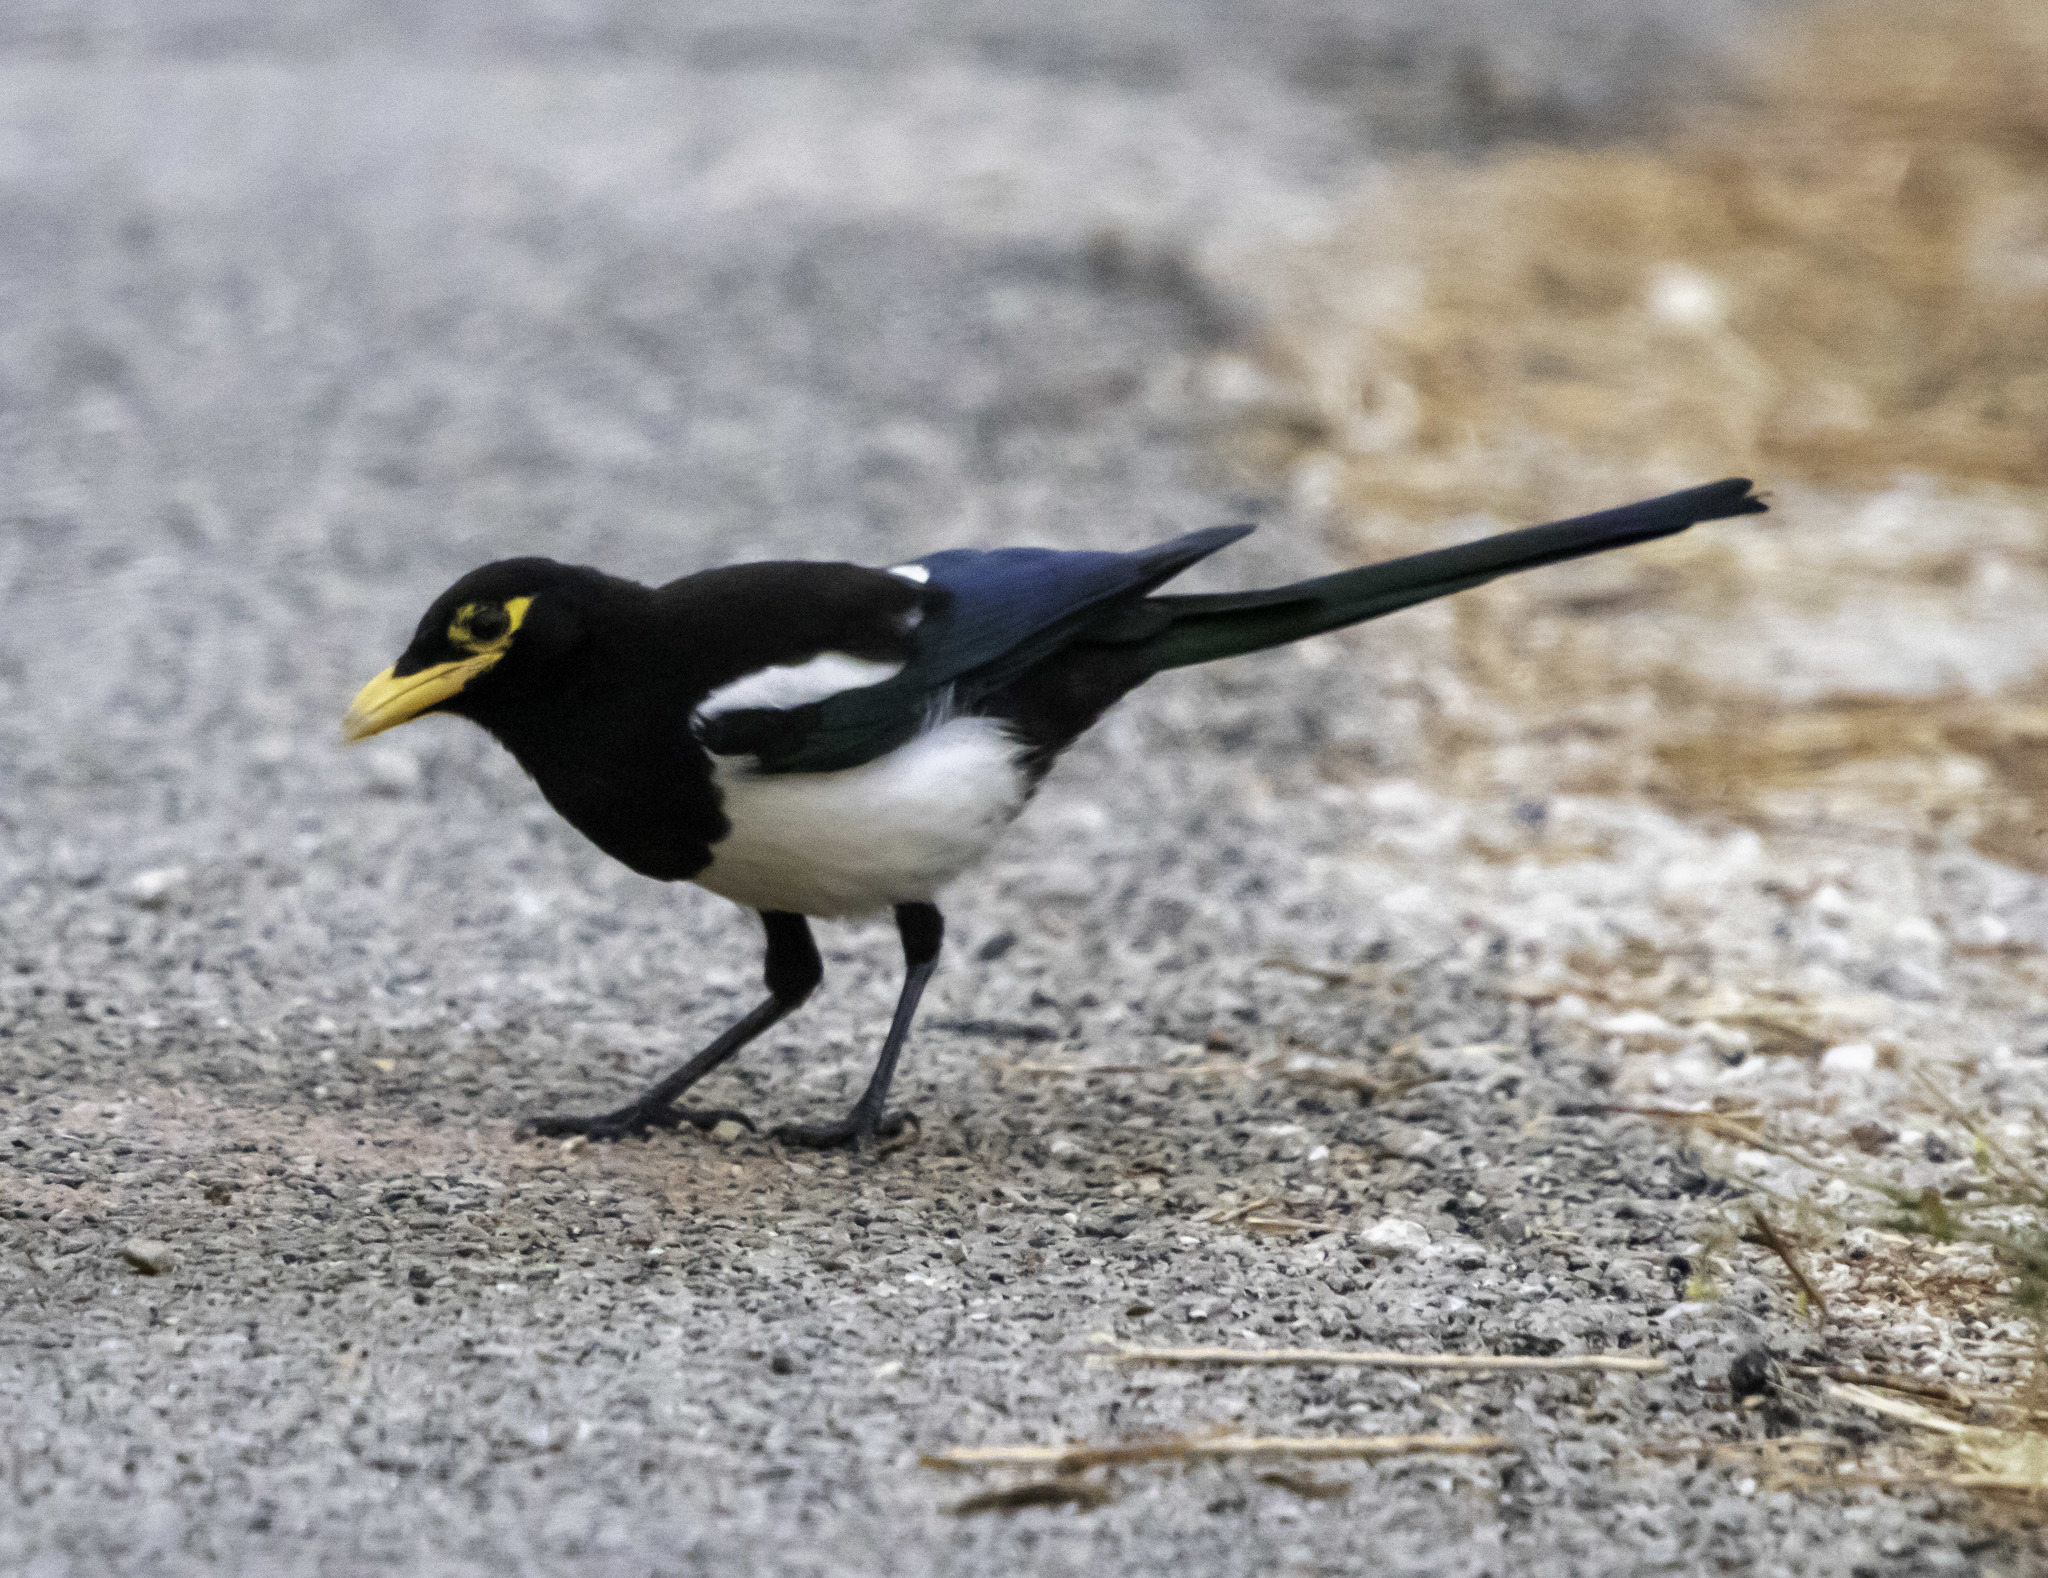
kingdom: Animalia
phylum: Chordata
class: Aves
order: Passeriformes
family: Corvidae
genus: Pica
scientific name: Pica nuttalli
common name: Yellow-billed magpie
